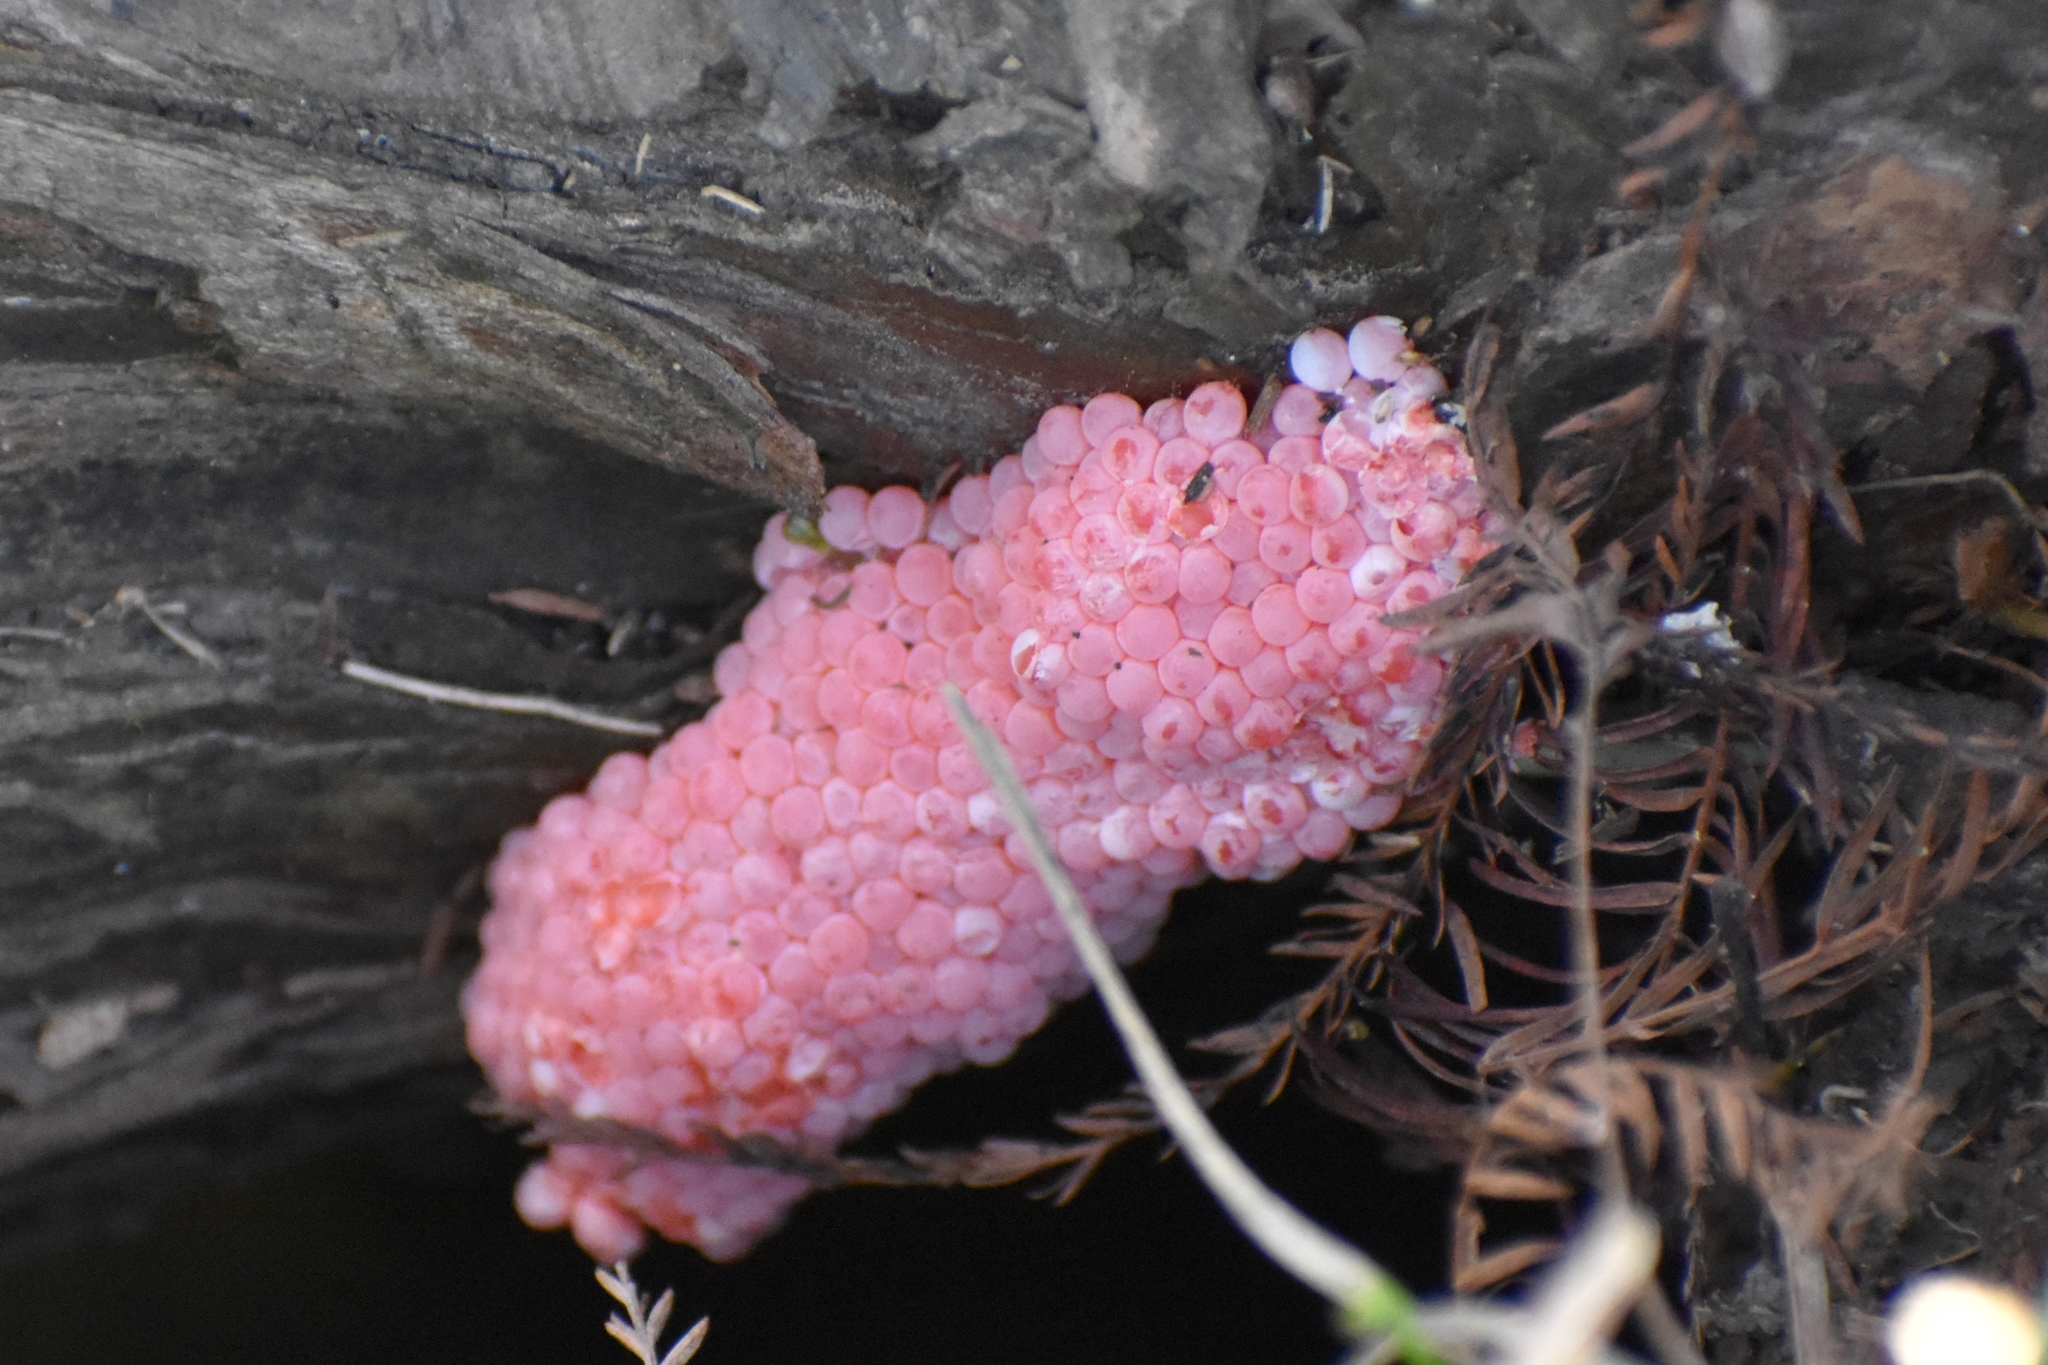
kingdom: Animalia
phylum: Mollusca
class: Gastropoda
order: Architaenioglossa
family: Ampullariidae
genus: Pomacea
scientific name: Pomacea canaliculata
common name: Channeled applesnail
